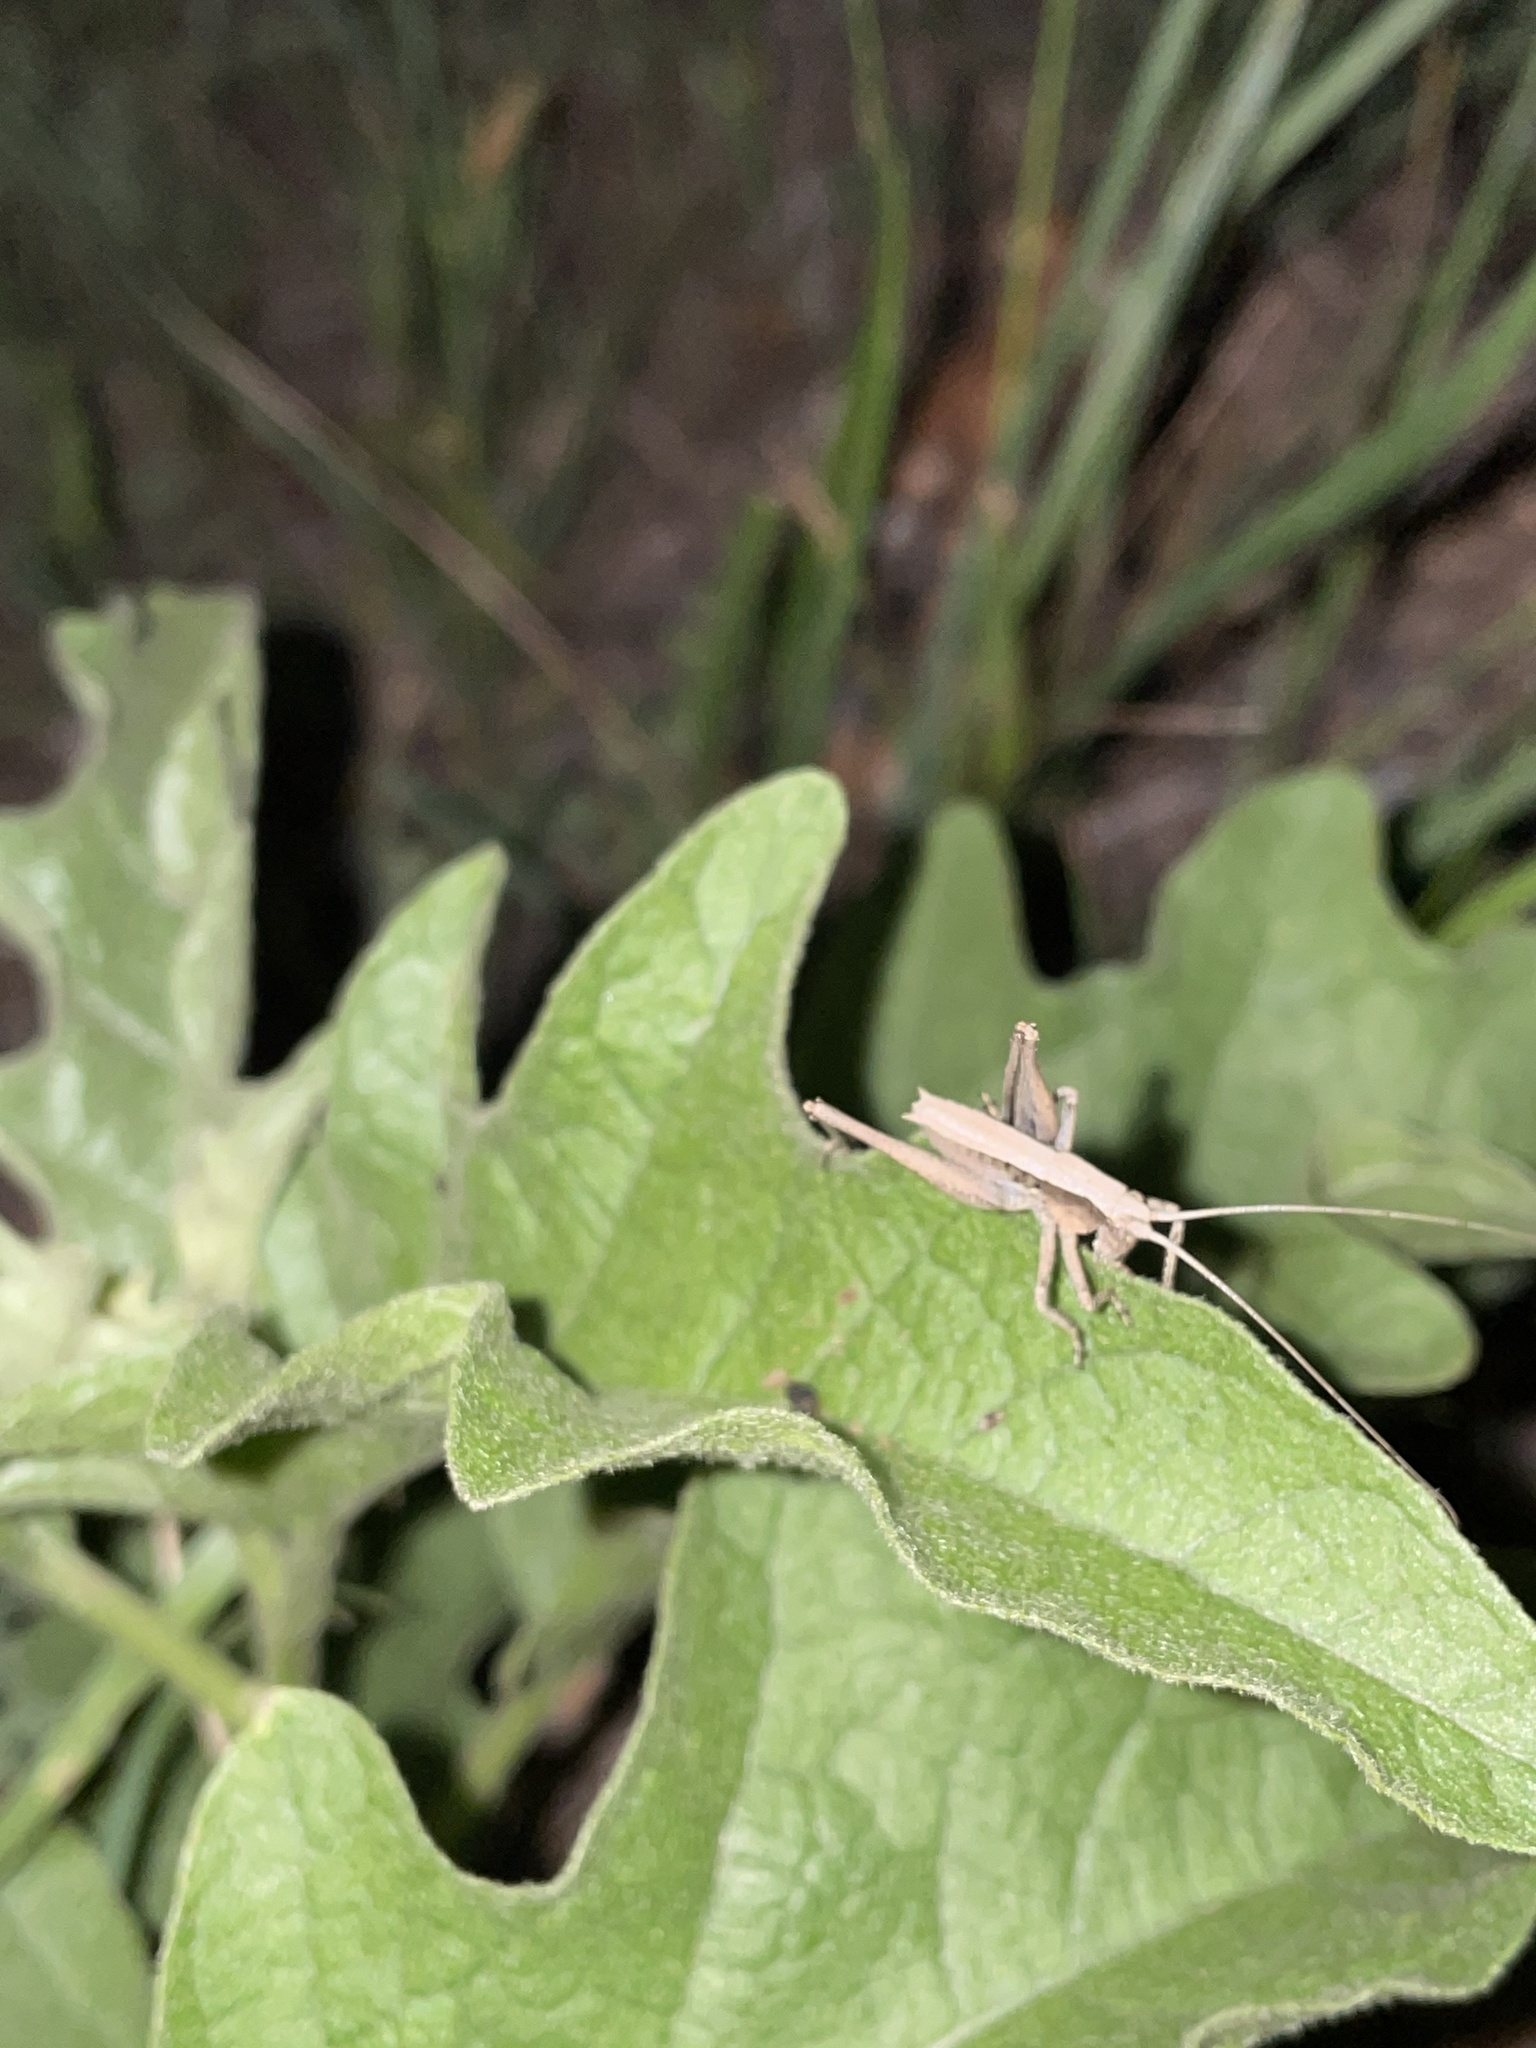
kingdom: Animalia
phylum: Arthropoda
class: Insecta
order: Orthoptera
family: Tettigoniidae
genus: Pediodectes
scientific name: Pediodectes nigromarginatus
